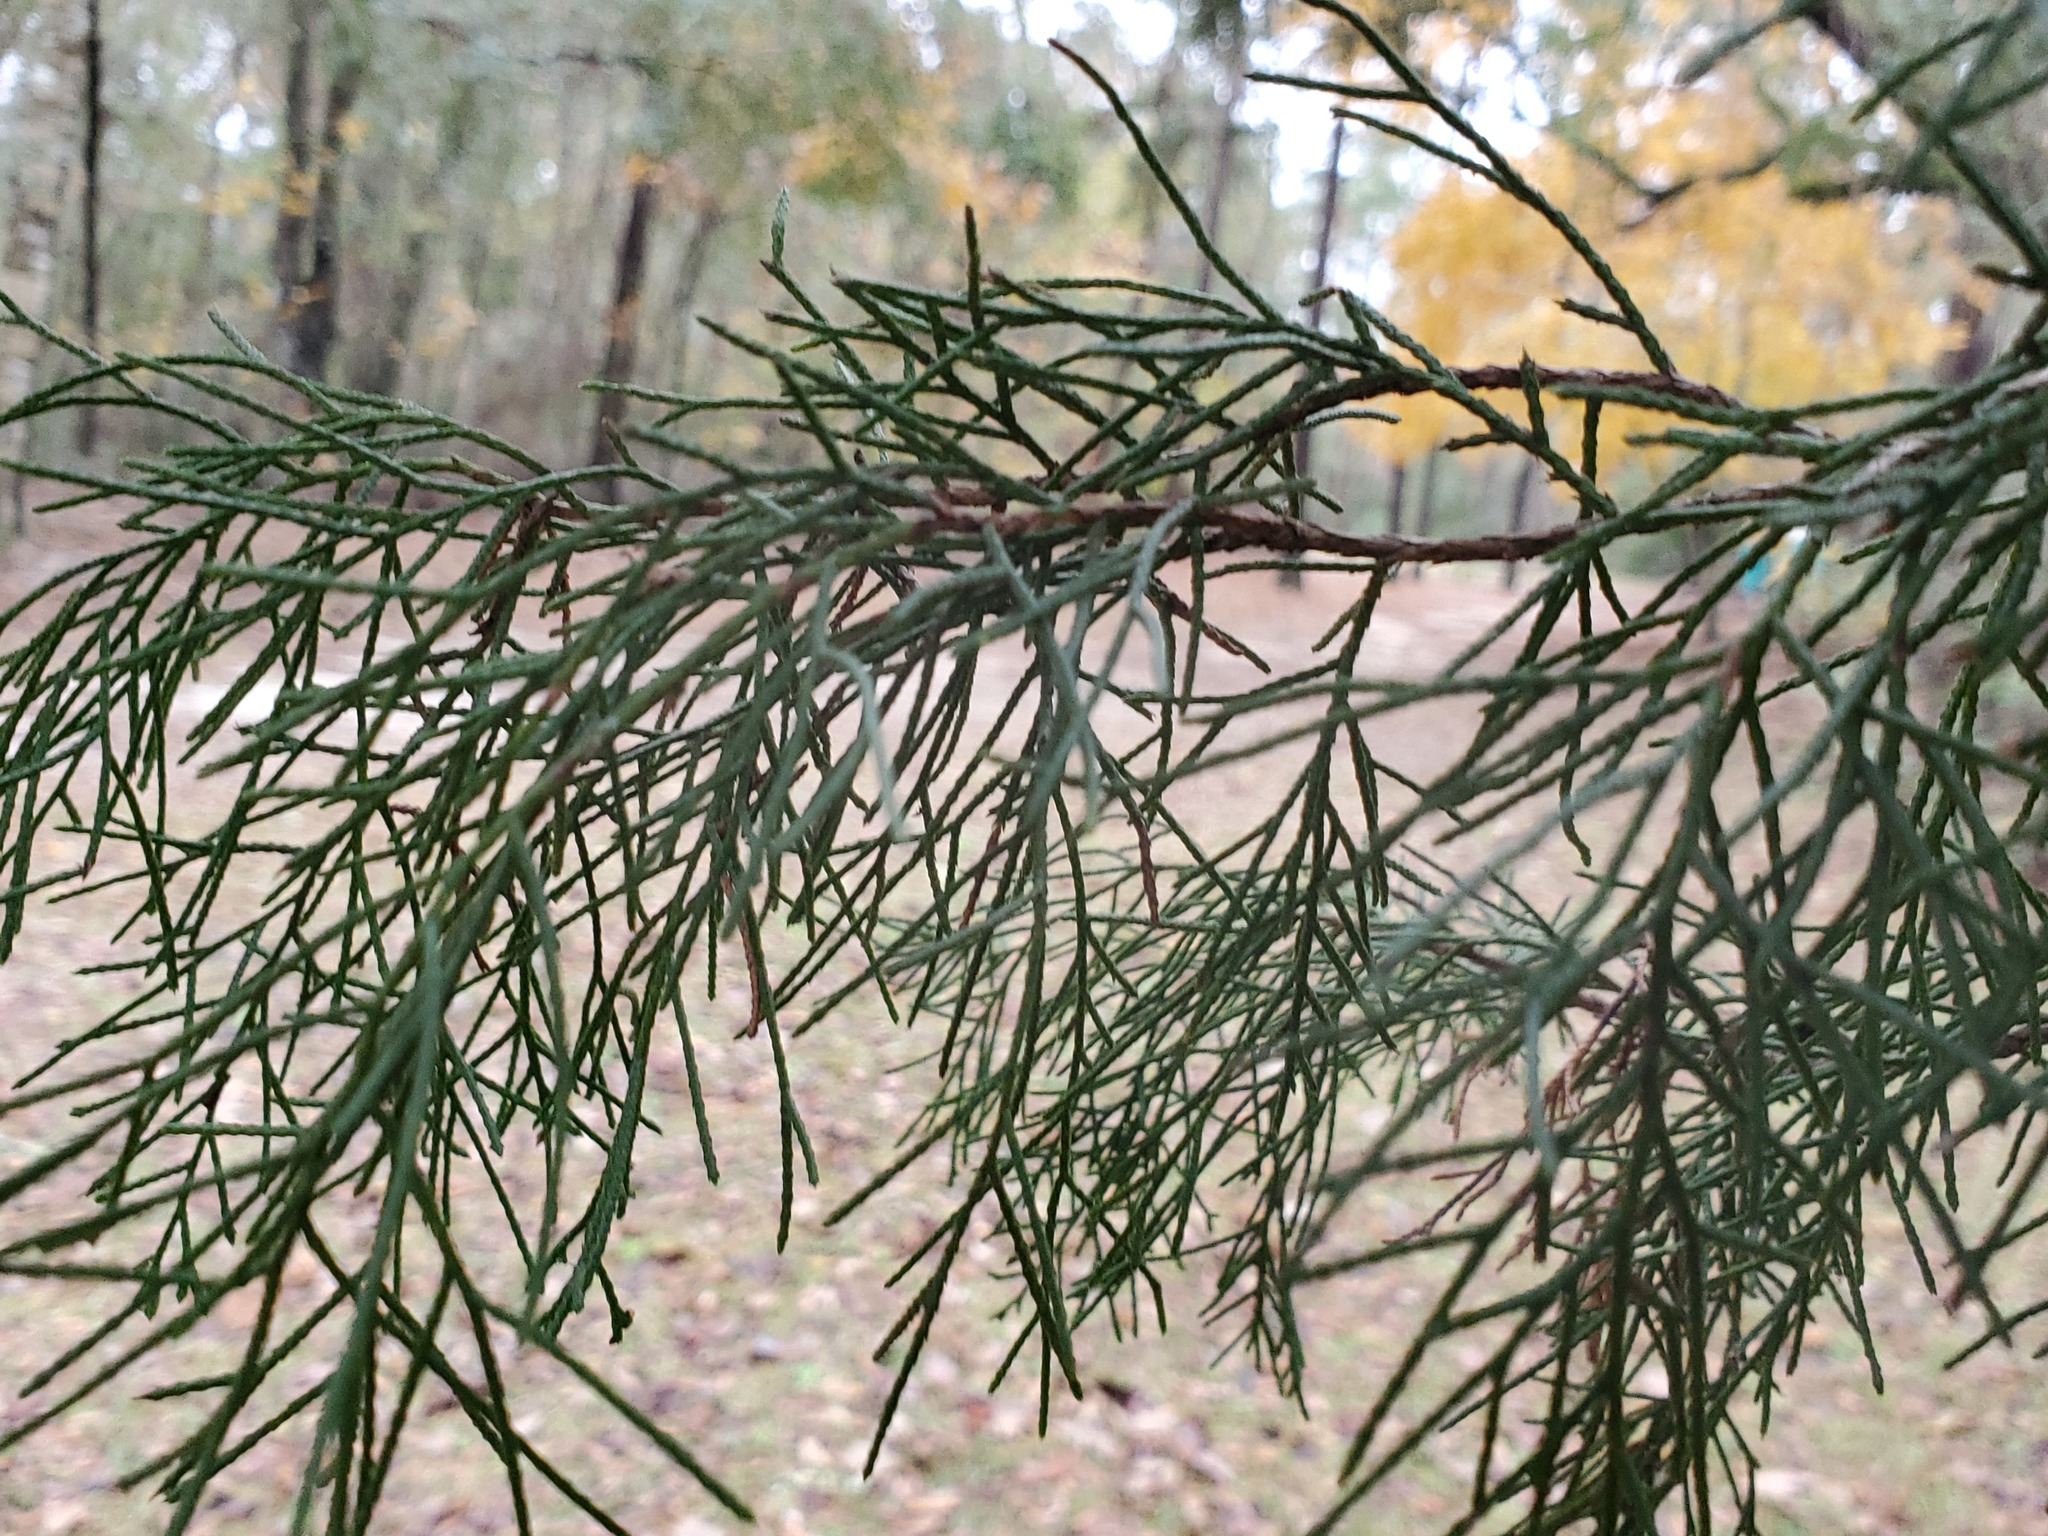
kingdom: Plantae
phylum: Tracheophyta
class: Pinopsida
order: Pinales
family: Cupressaceae
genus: Juniperus
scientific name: Juniperus virginiana
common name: Red juniper
